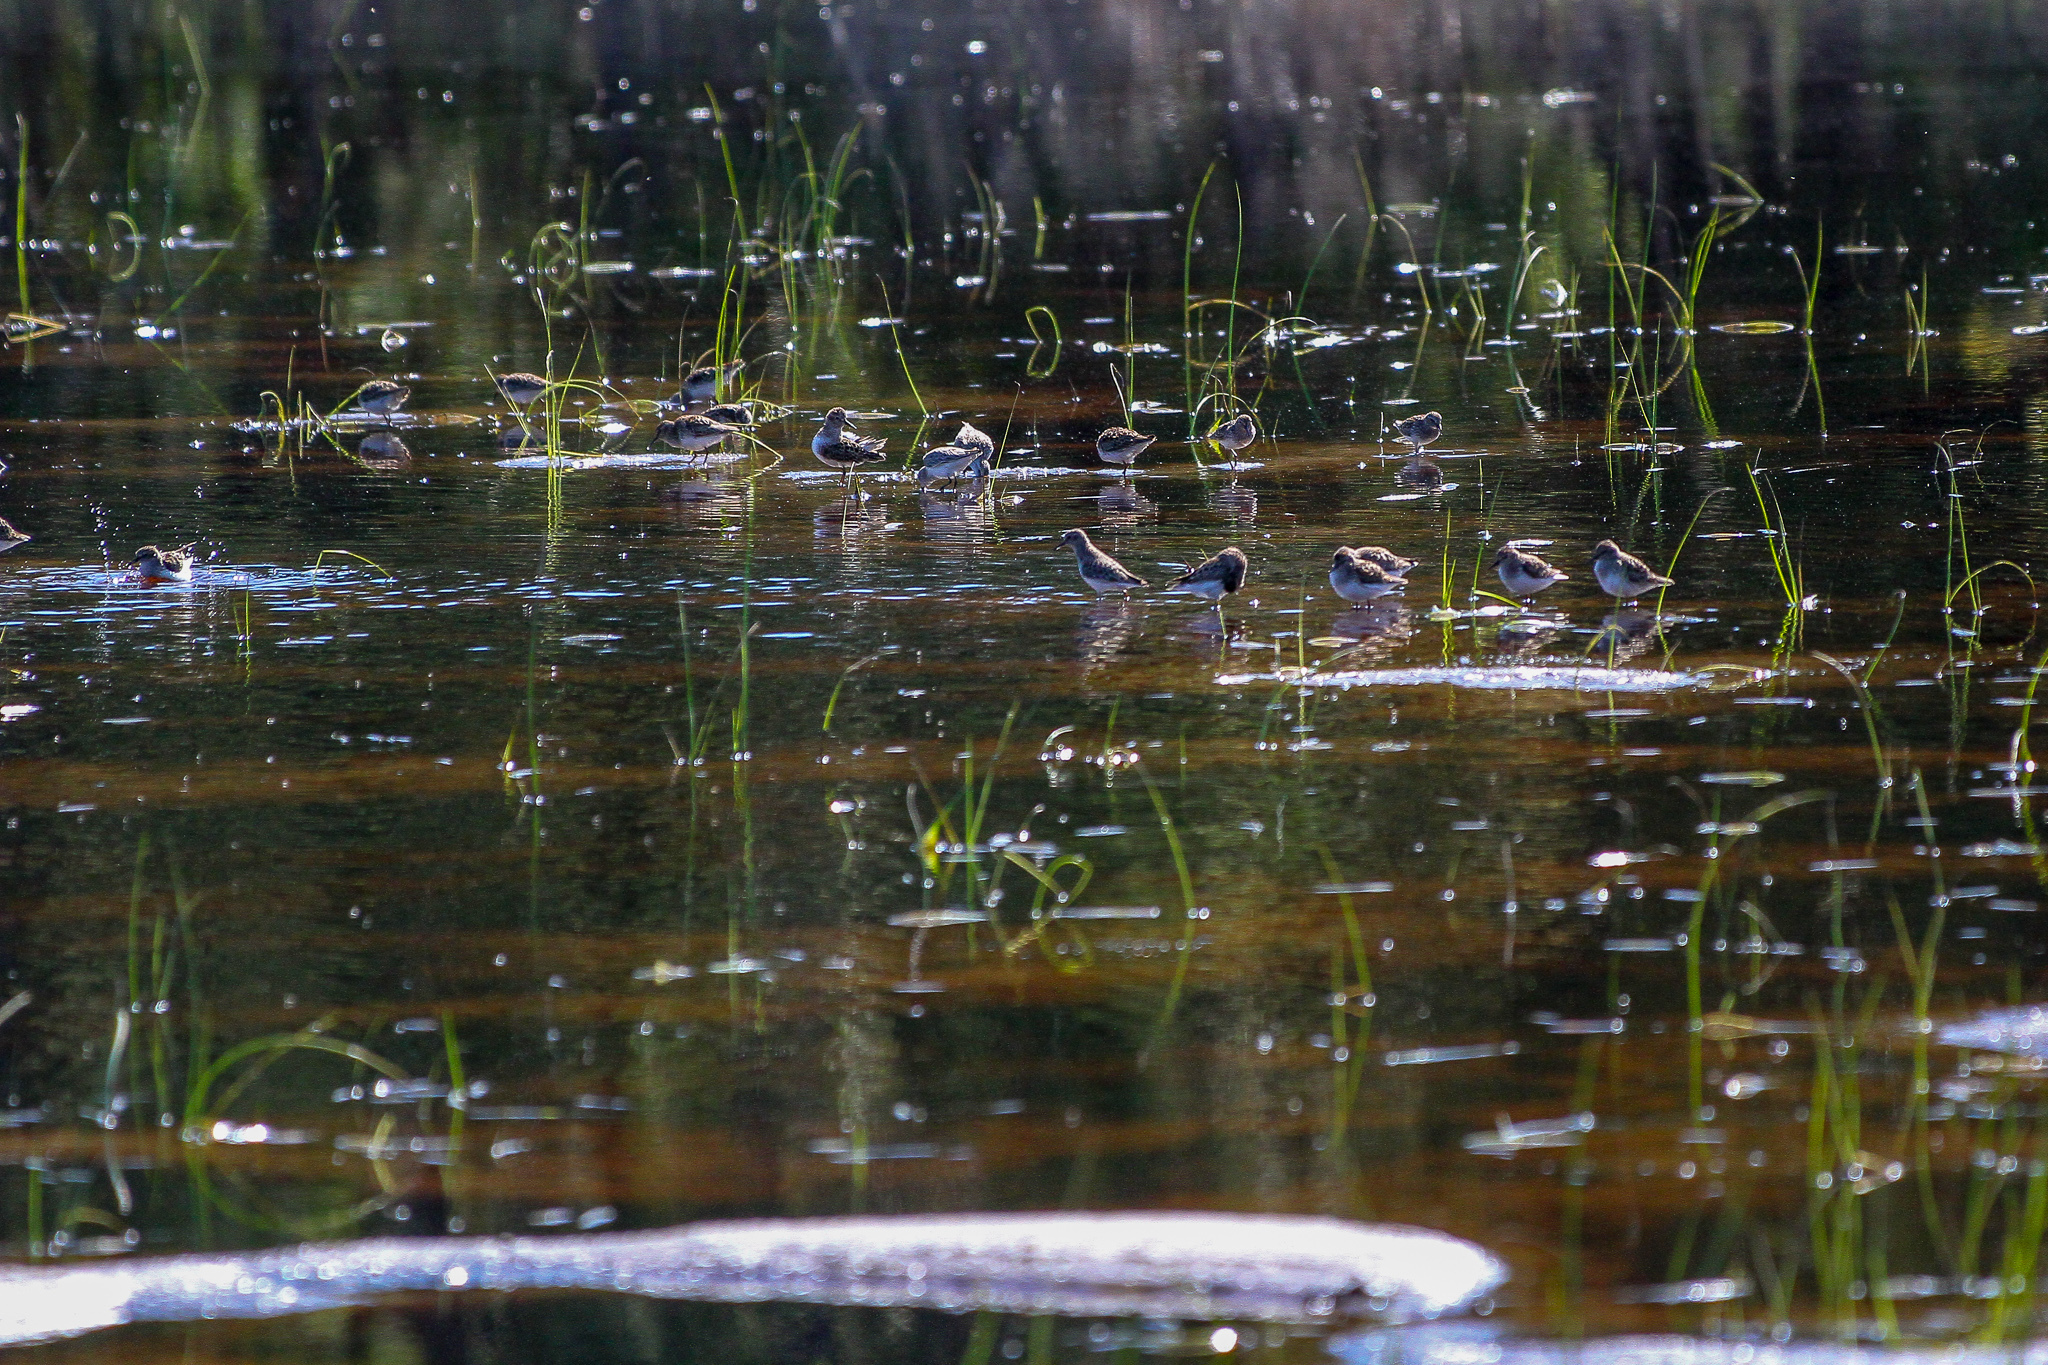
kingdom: Animalia
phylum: Chordata
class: Aves
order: Charadriiformes
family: Scolopacidae
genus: Calidris
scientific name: Calidris minutilla
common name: Least sandpiper
